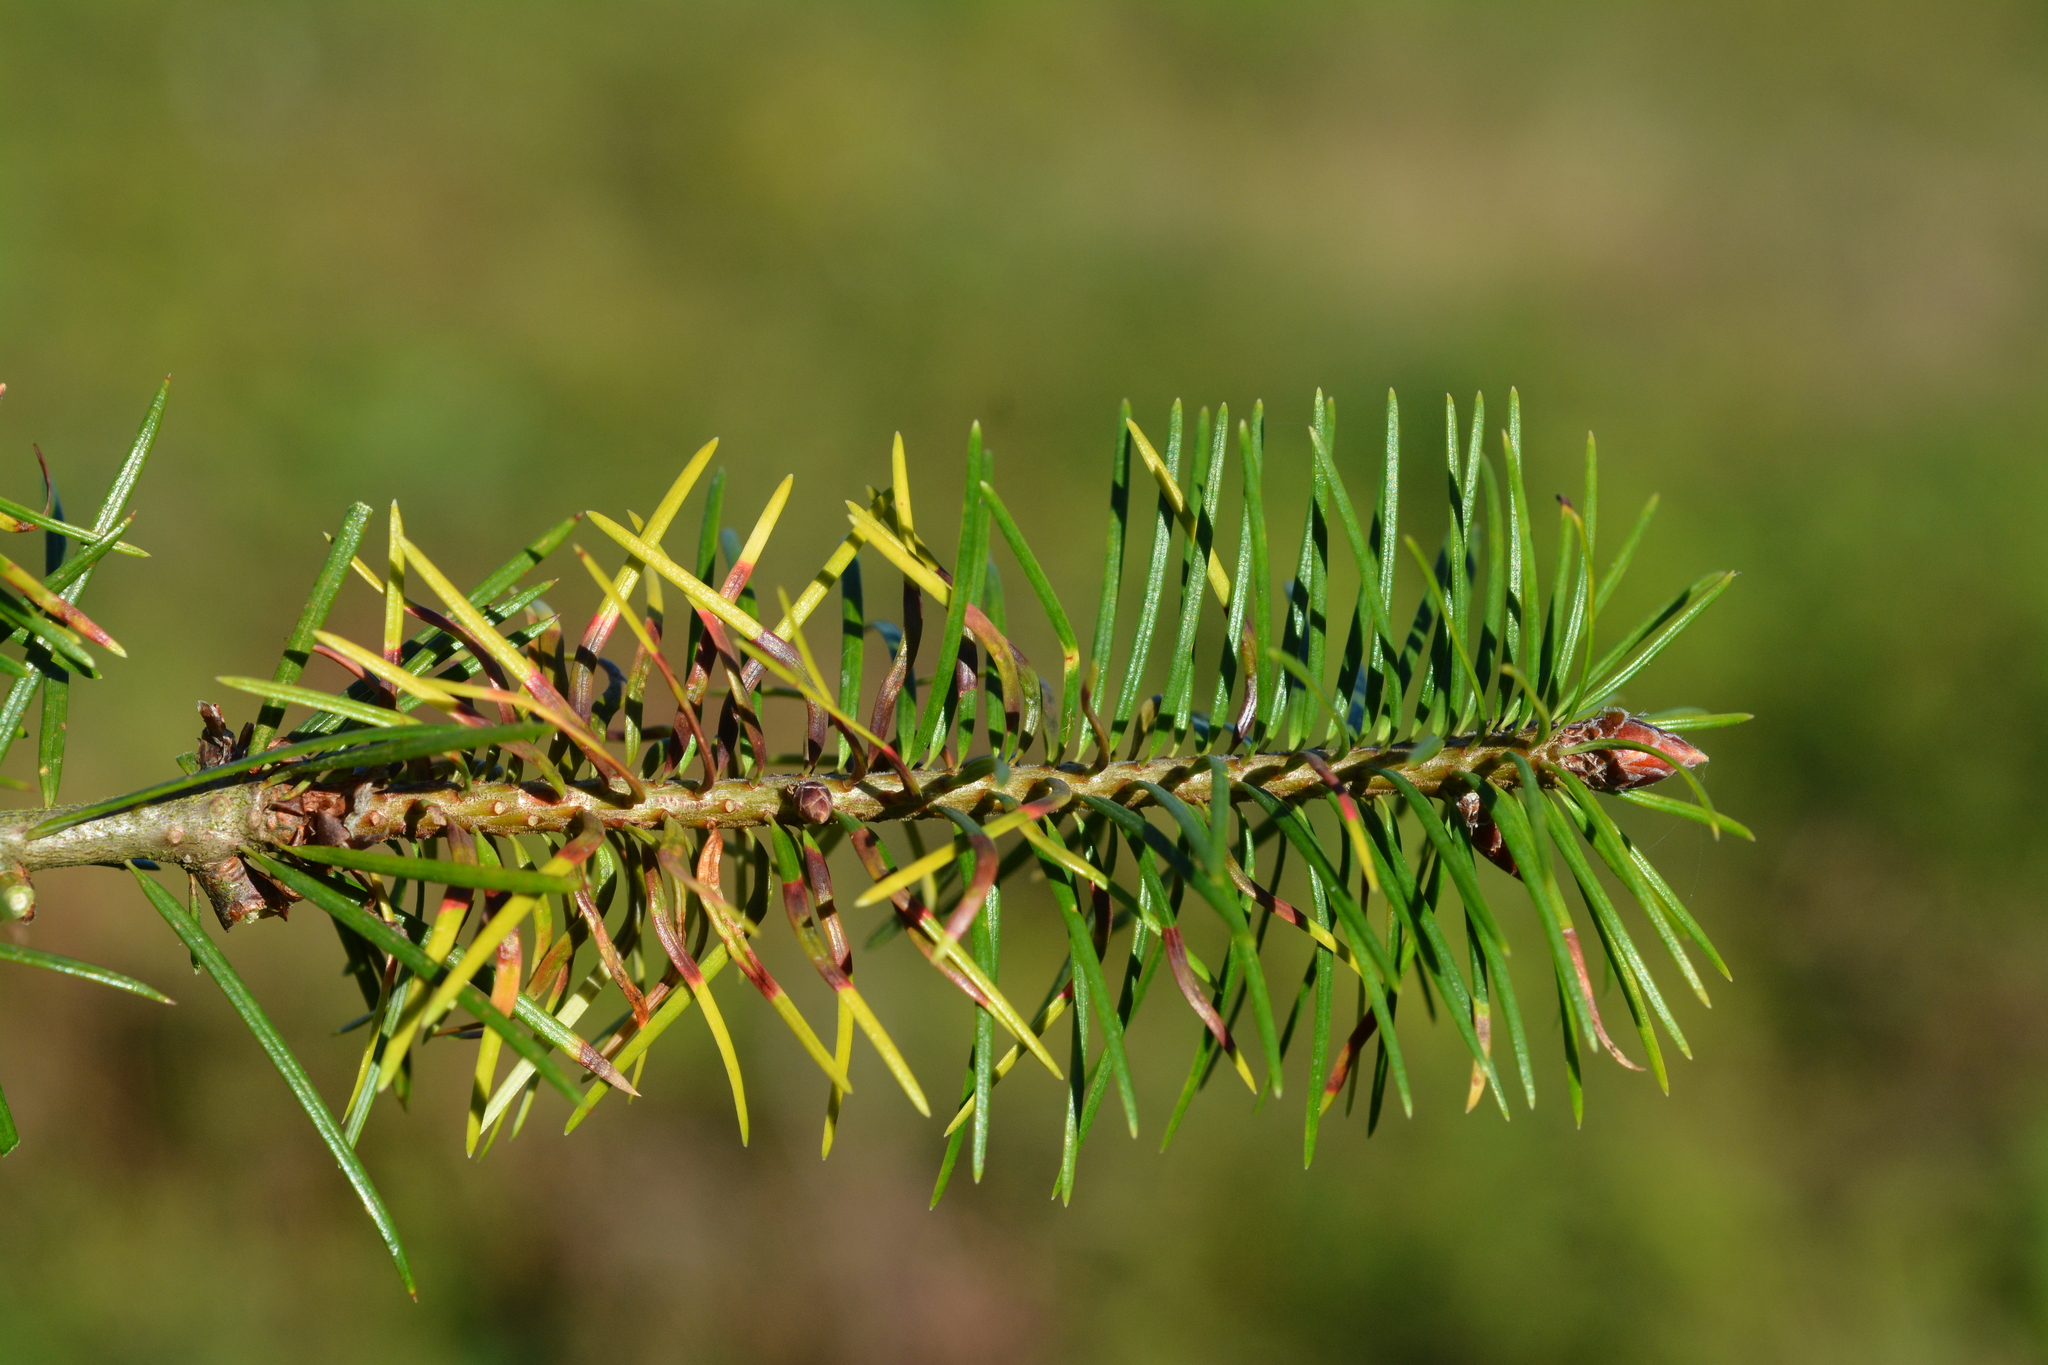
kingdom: Animalia
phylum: Arthropoda
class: Insecta
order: Diptera
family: Cecidomyiidae
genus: Contarinia
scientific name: Contarinia pseudotsugae
